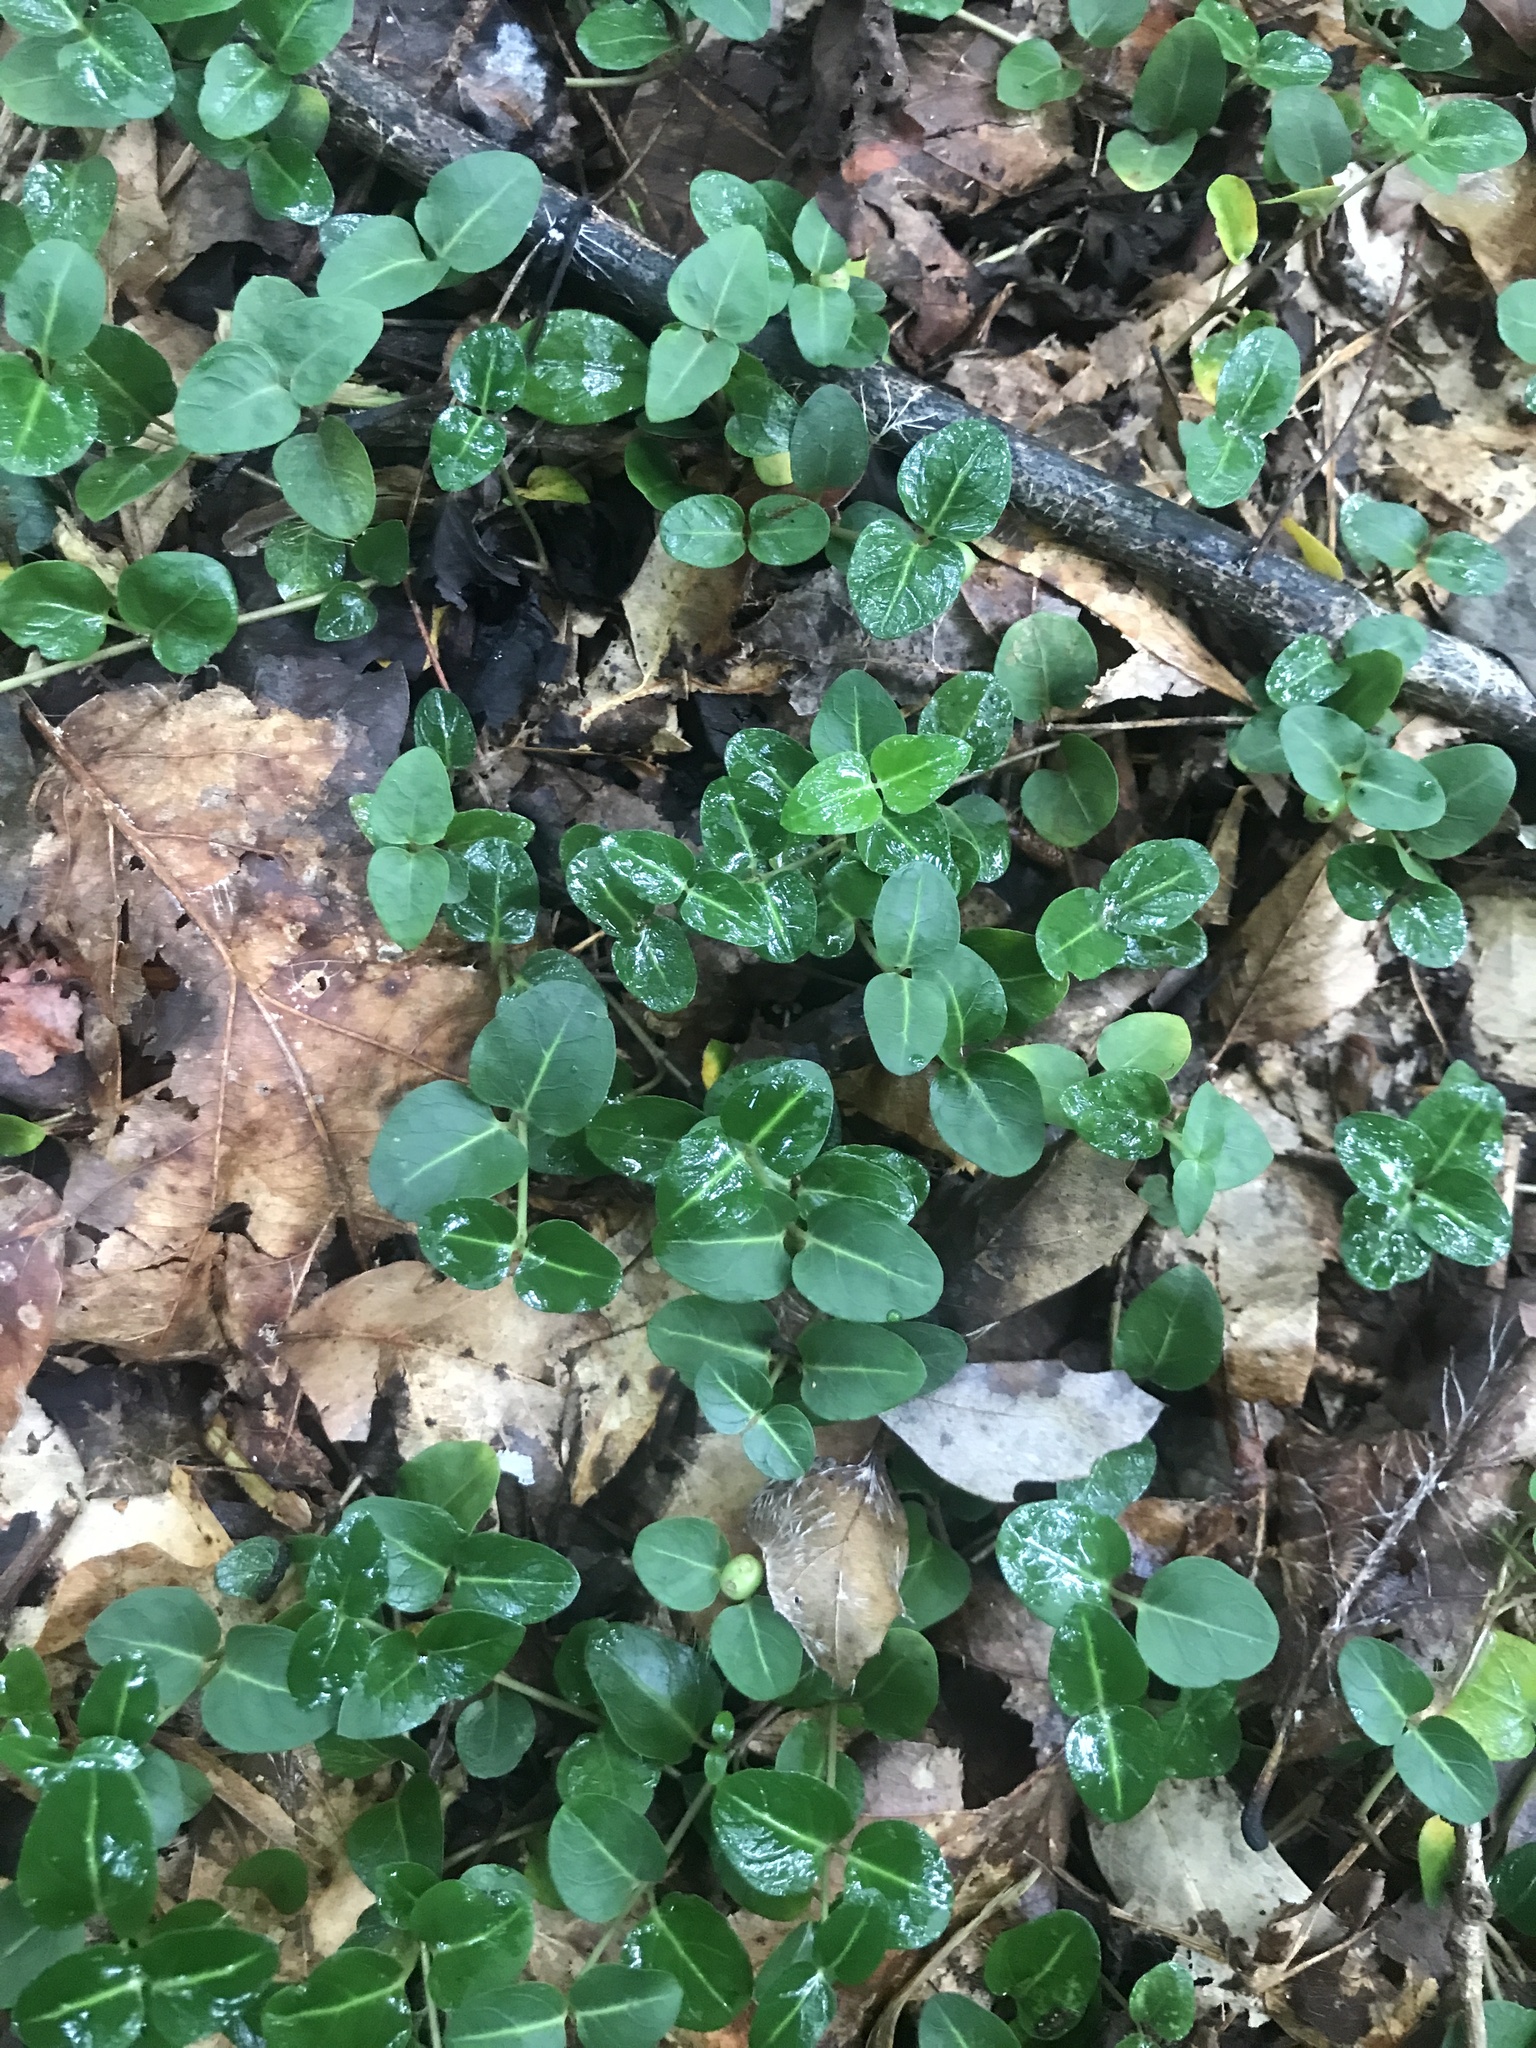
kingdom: Plantae
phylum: Tracheophyta
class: Magnoliopsida
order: Gentianales
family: Rubiaceae
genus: Mitchella
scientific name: Mitchella repens
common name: Partridge-berry
